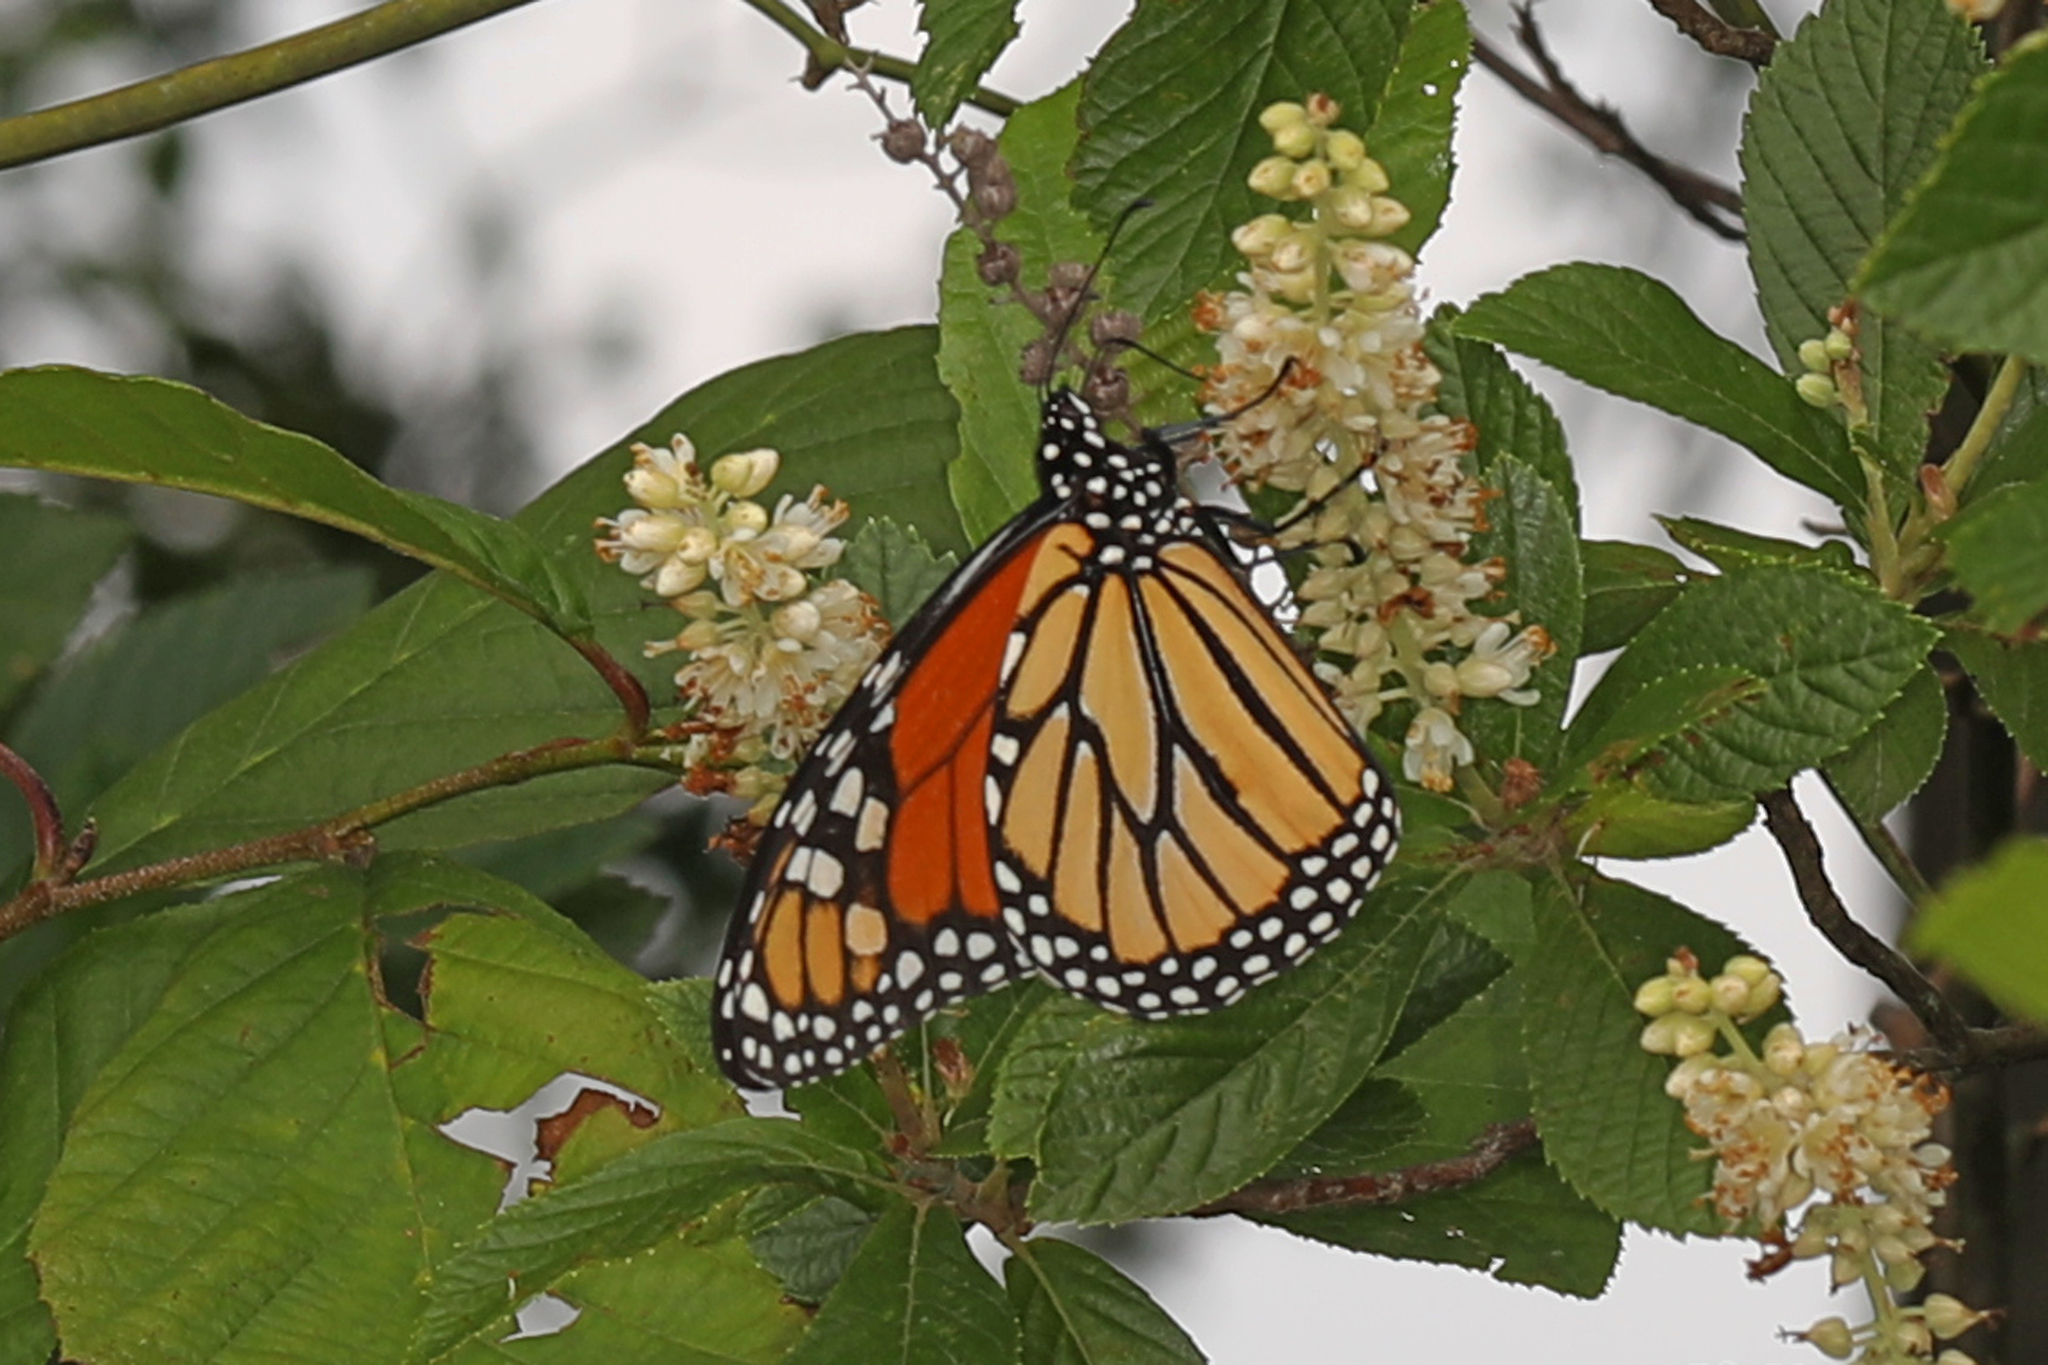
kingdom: Animalia
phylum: Arthropoda
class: Insecta
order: Lepidoptera
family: Nymphalidae
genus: Danaus
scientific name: Danaus plexippus
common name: Monarch
